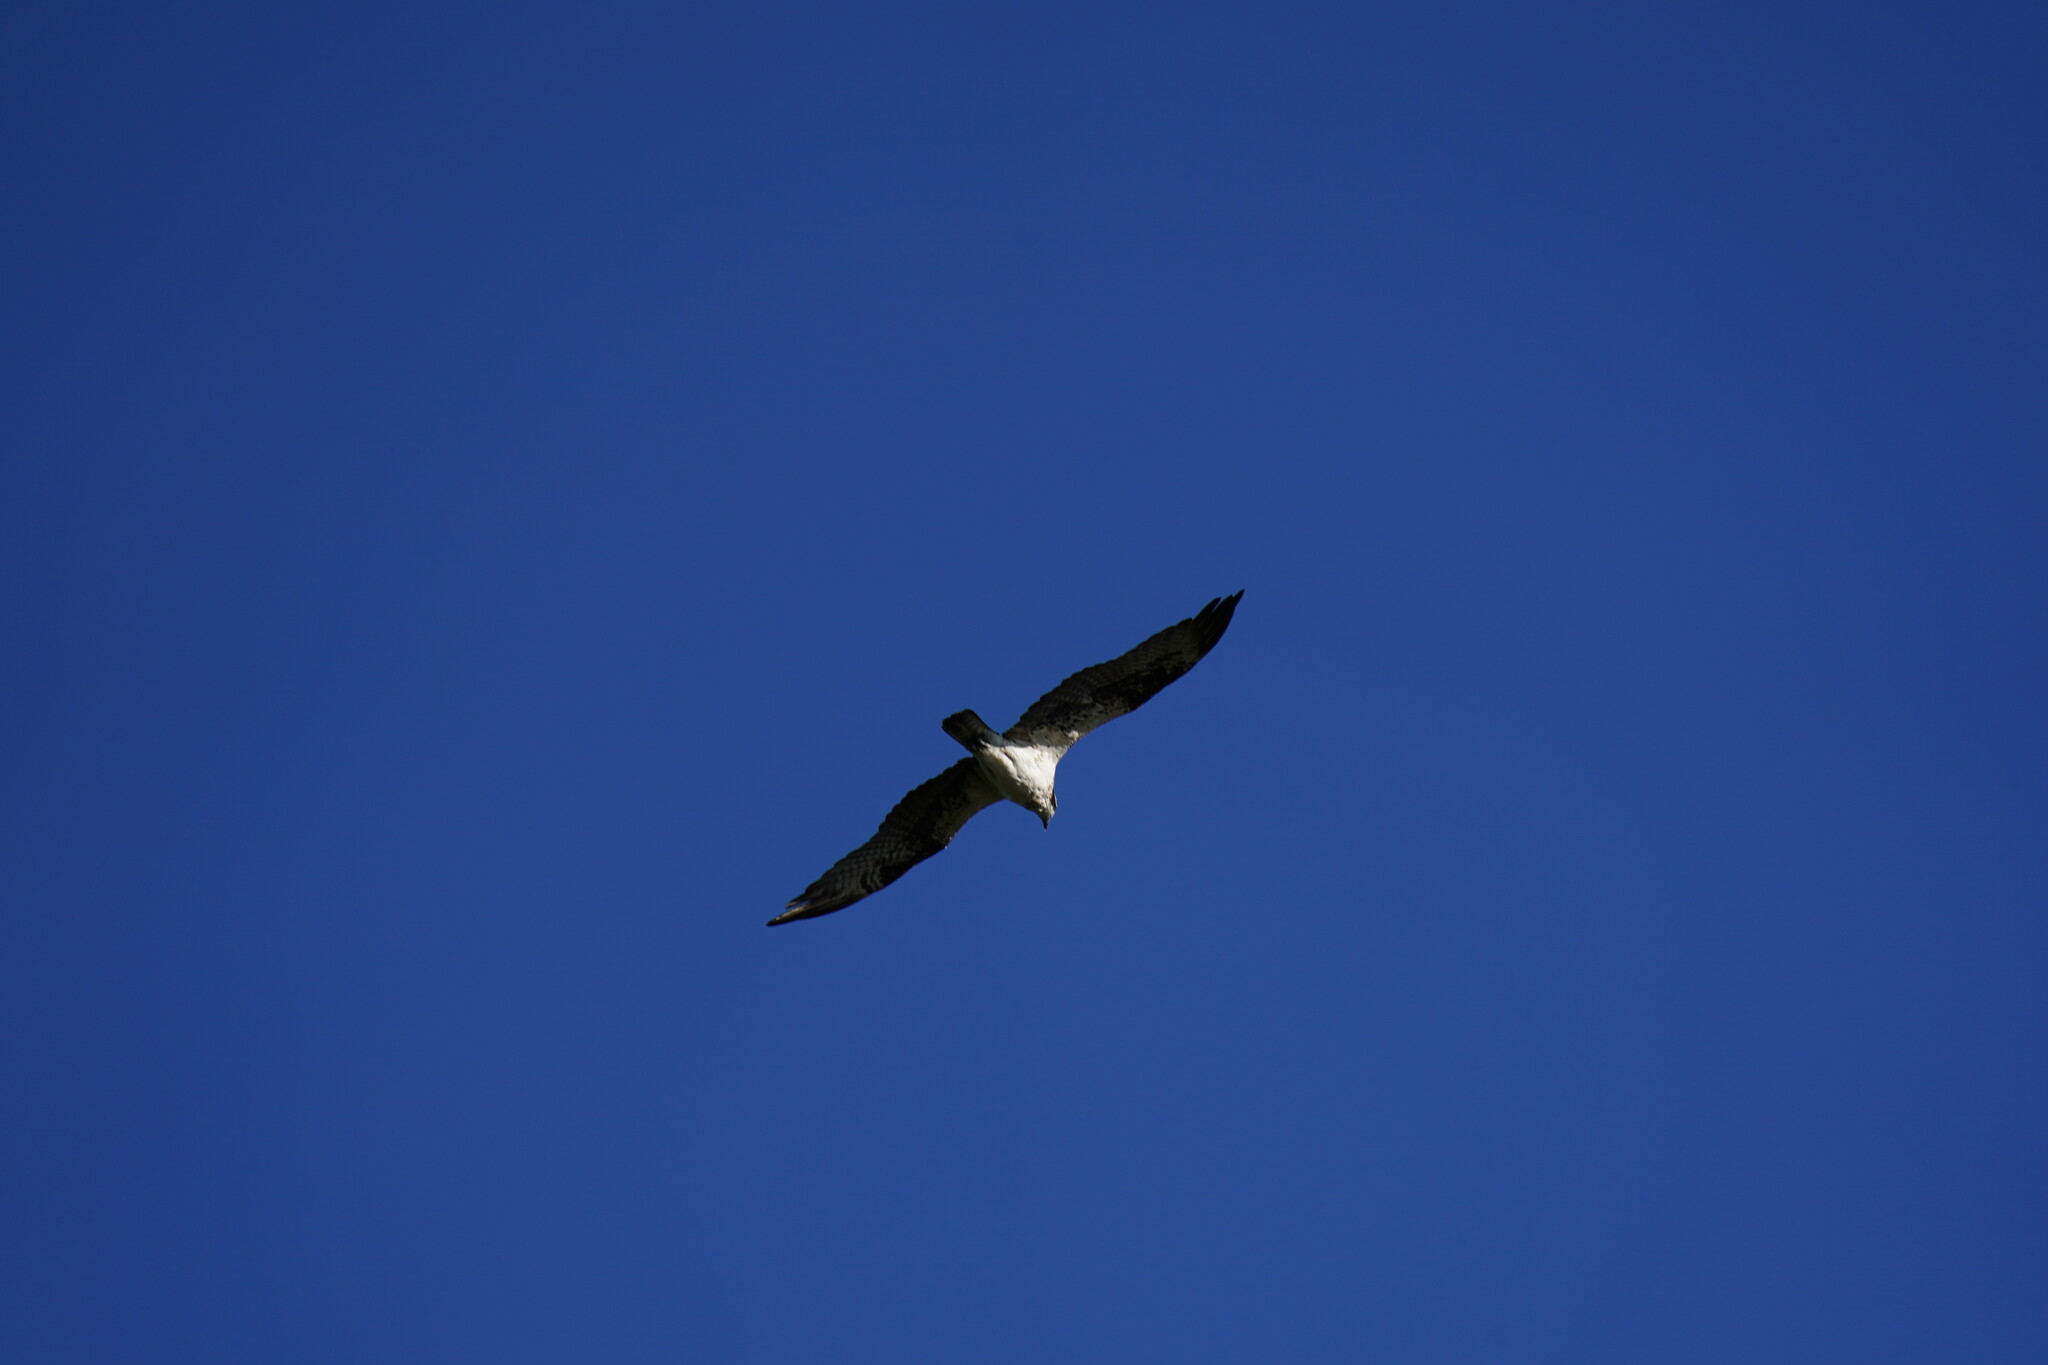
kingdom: Animalia
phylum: Chordata
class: Aves
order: Accipitriformes
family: Pandionidae
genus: Pandion
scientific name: Pandion haliaetus
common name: Osprey
